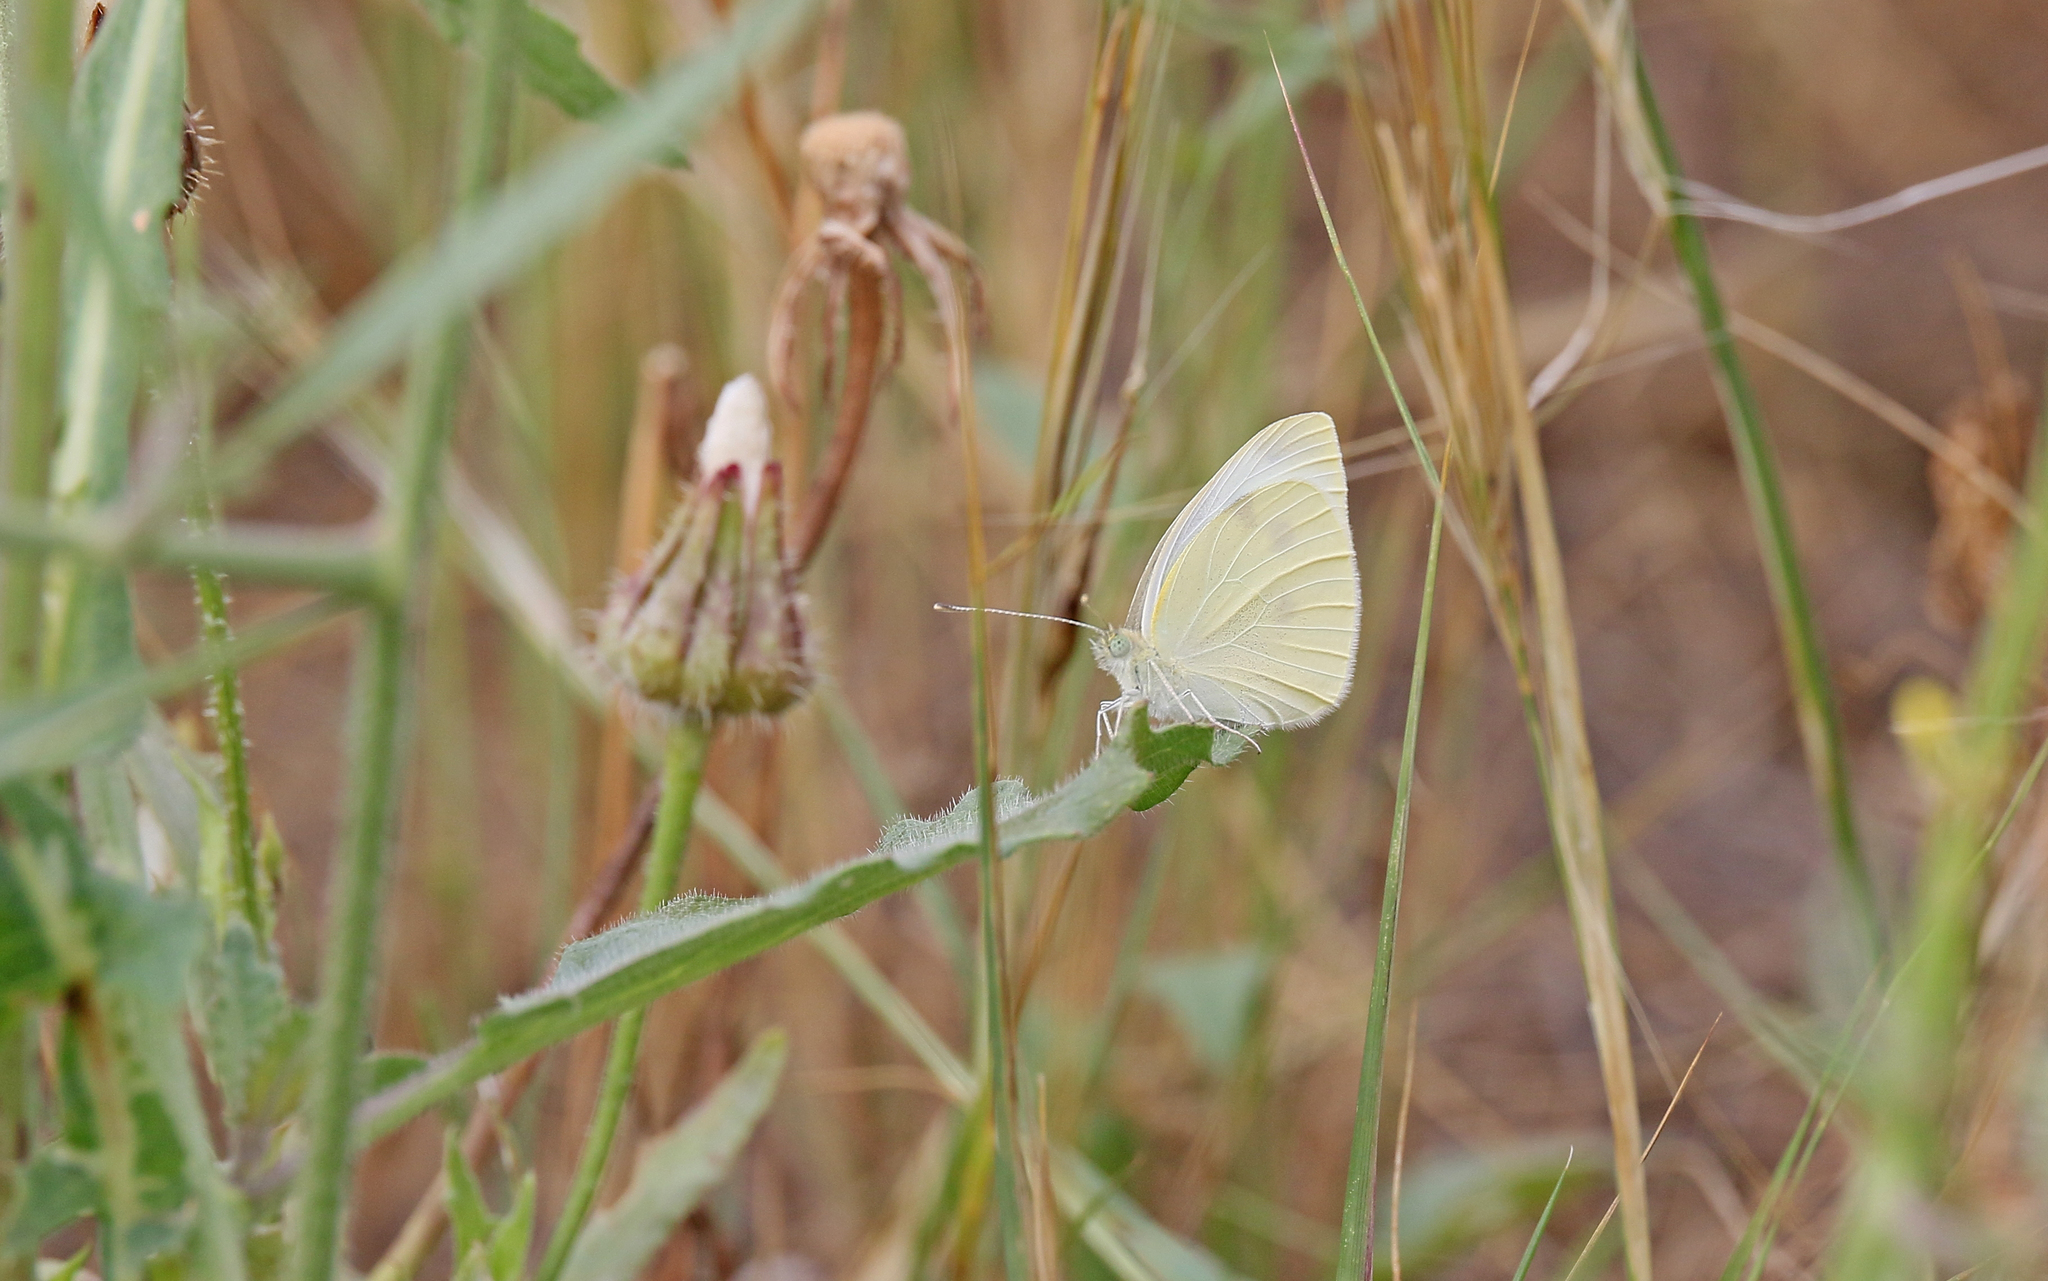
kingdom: Animalia
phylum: Arthropoda
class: Insecta
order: Lepidoptera
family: Pieridae
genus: Pieris
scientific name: Pieris rapae
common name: Small white
